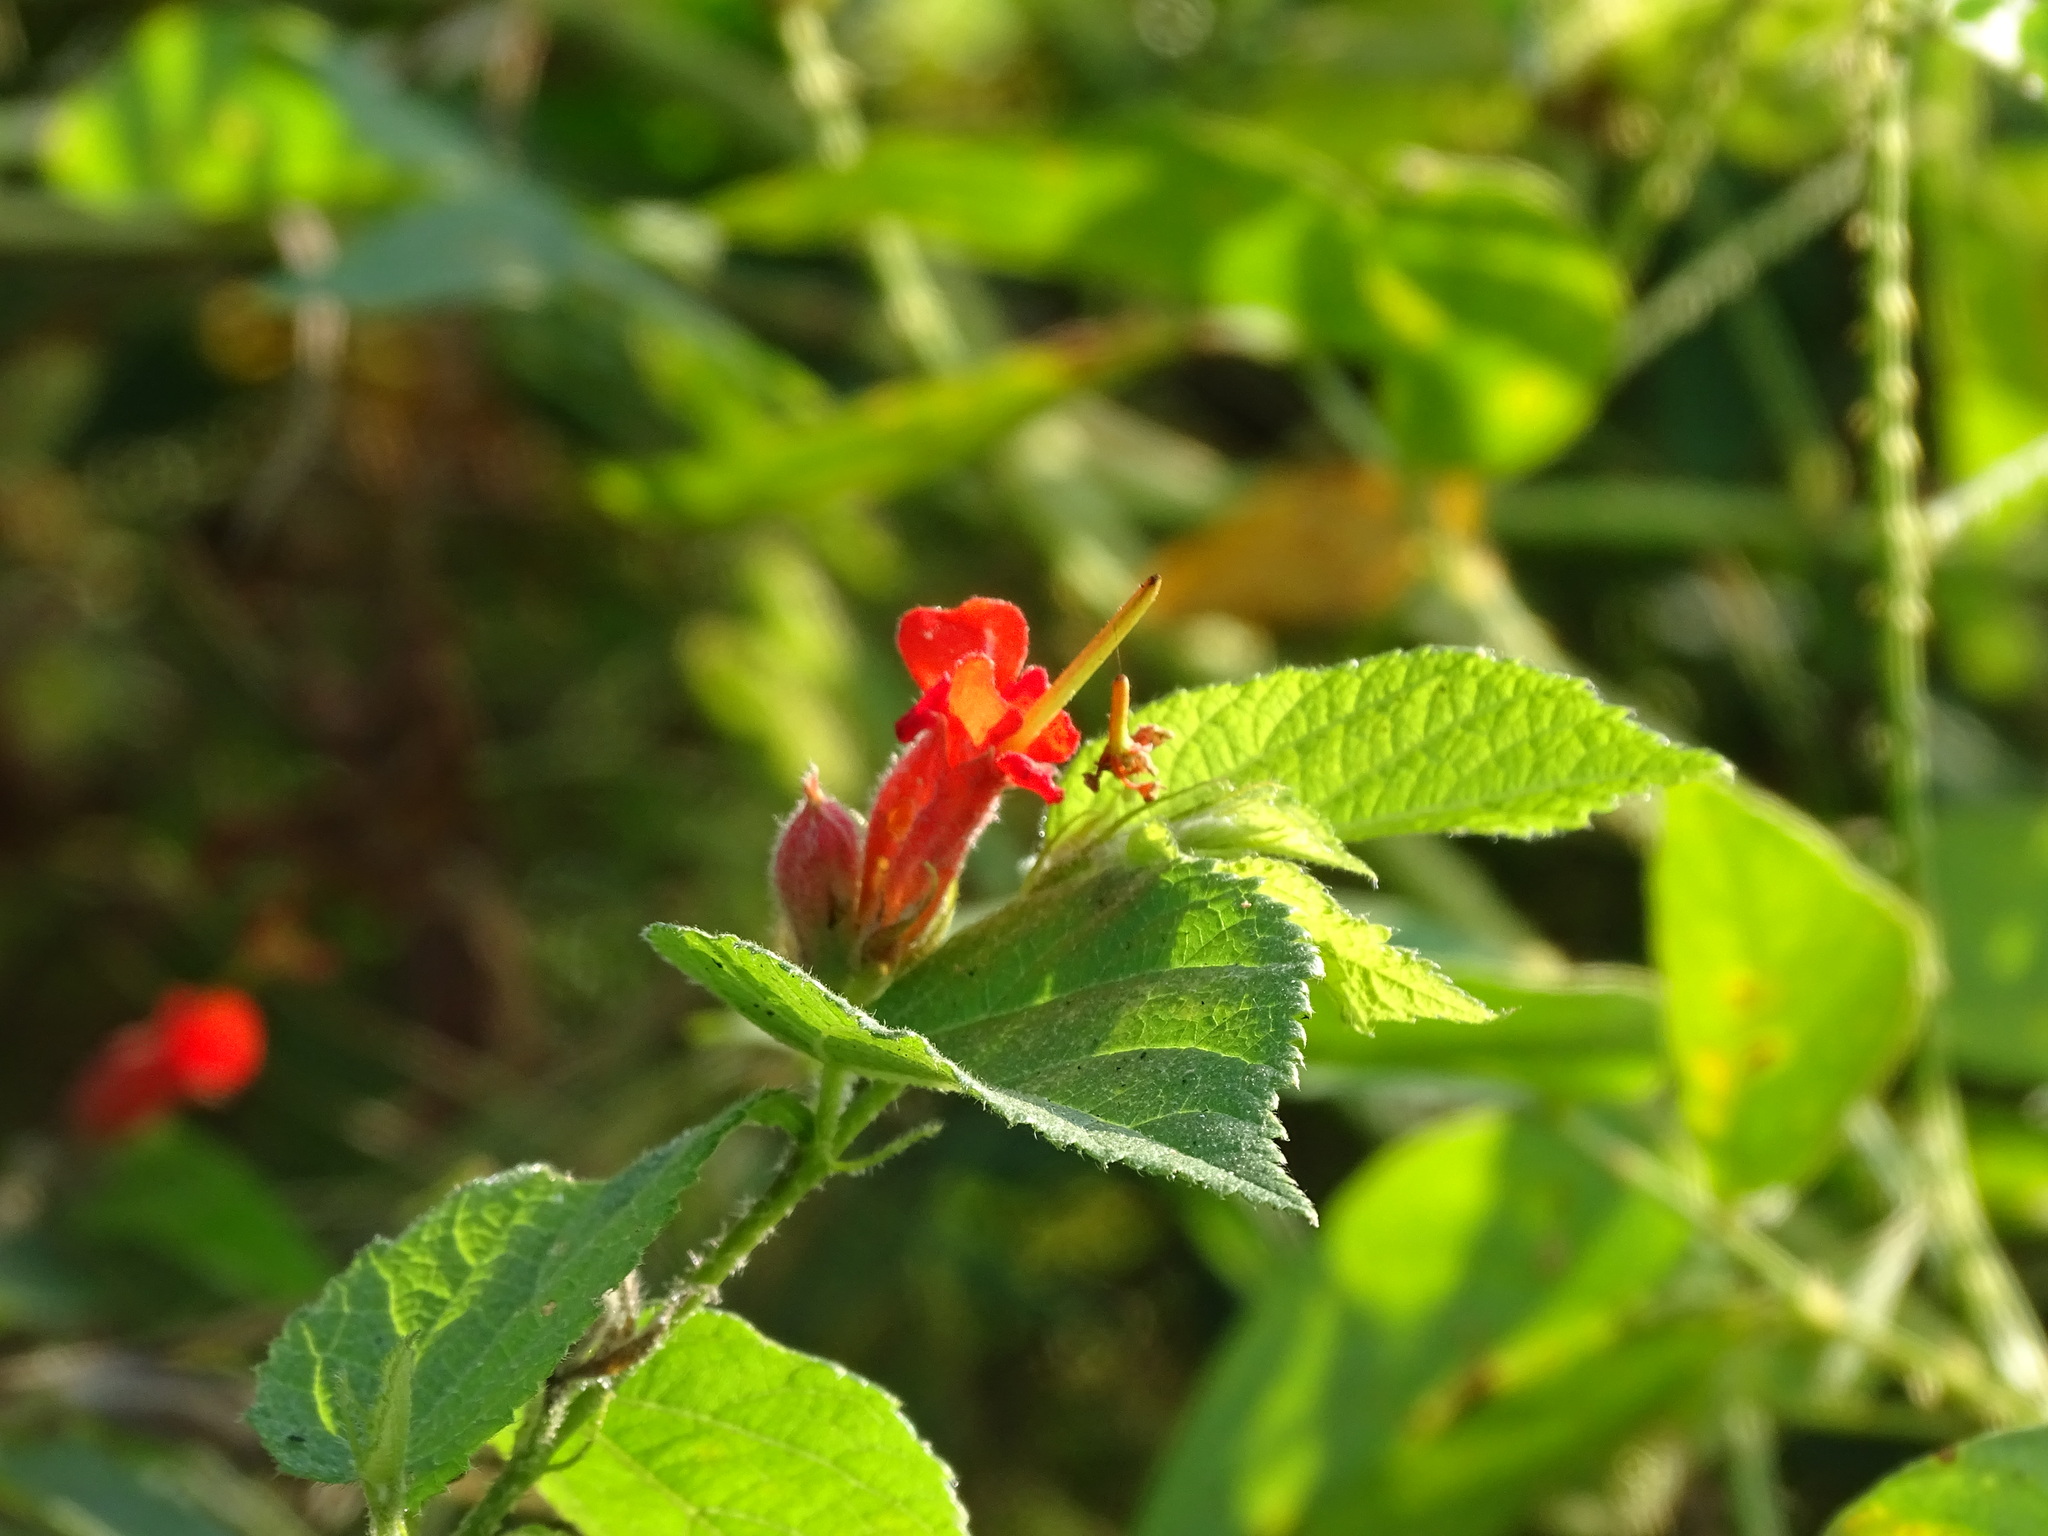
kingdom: Plantae
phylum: Tracheophyta
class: Magnoliopsida
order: Malvales
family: Malvaceae
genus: Helicteres
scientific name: Helicteres guazumifolia
